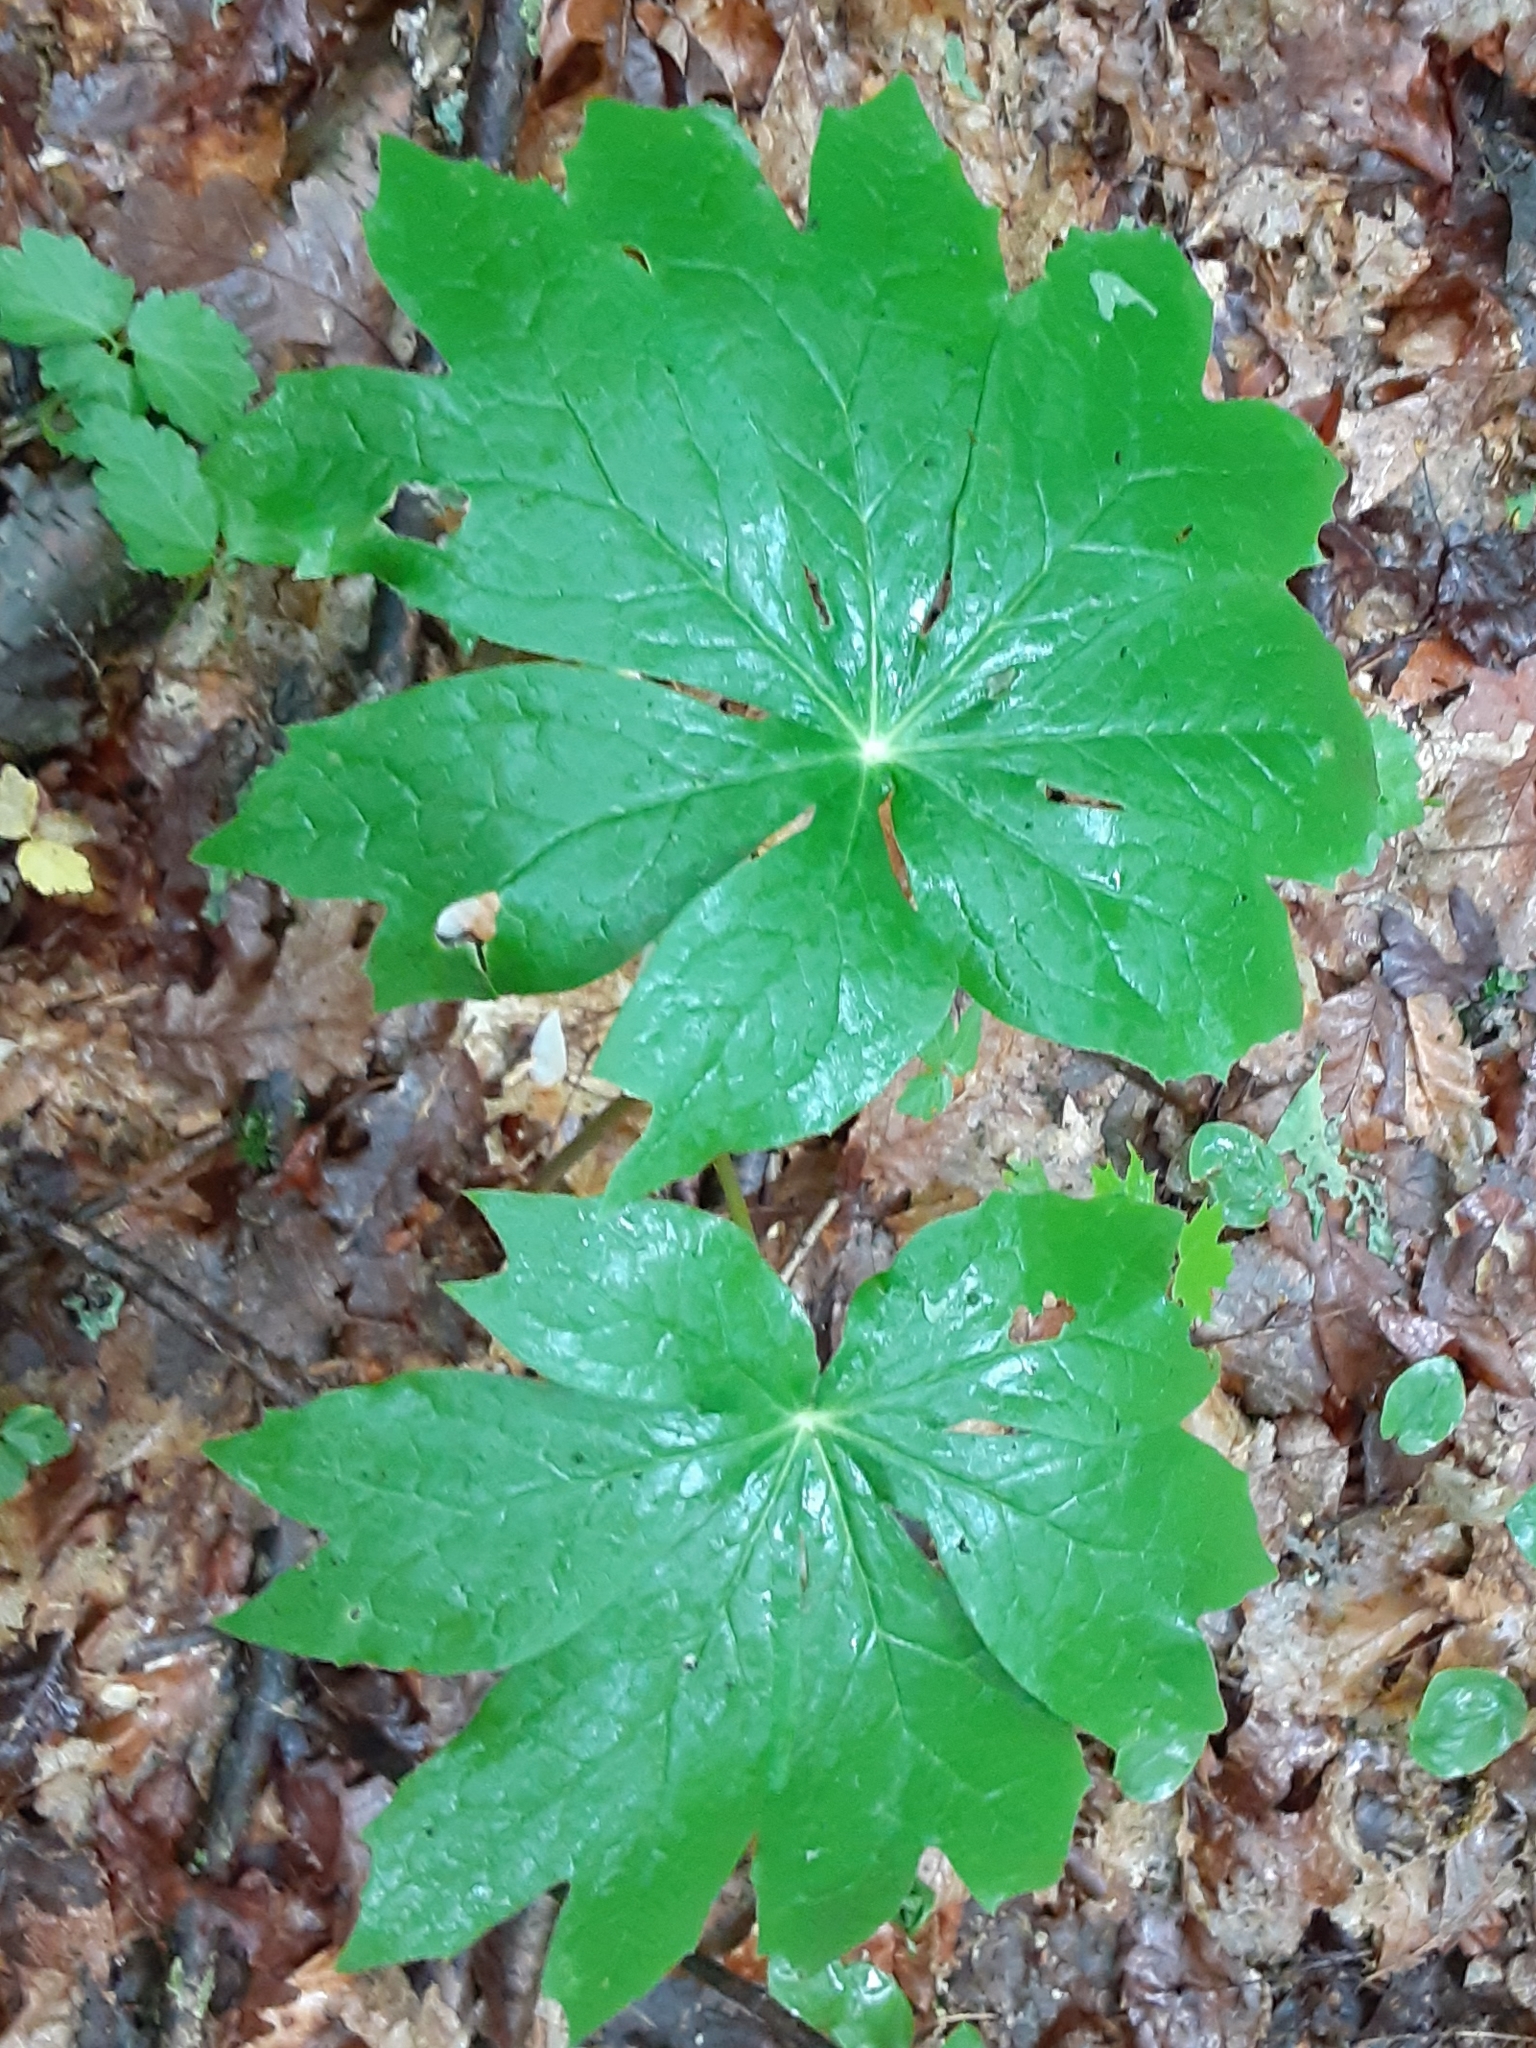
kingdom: Plantae
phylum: Tracheophyta
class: Magnoliopsida
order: Ranunculales
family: Berberidaceae
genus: Podophyllum
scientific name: Podophyllum peltatum
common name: Wild mandrake
